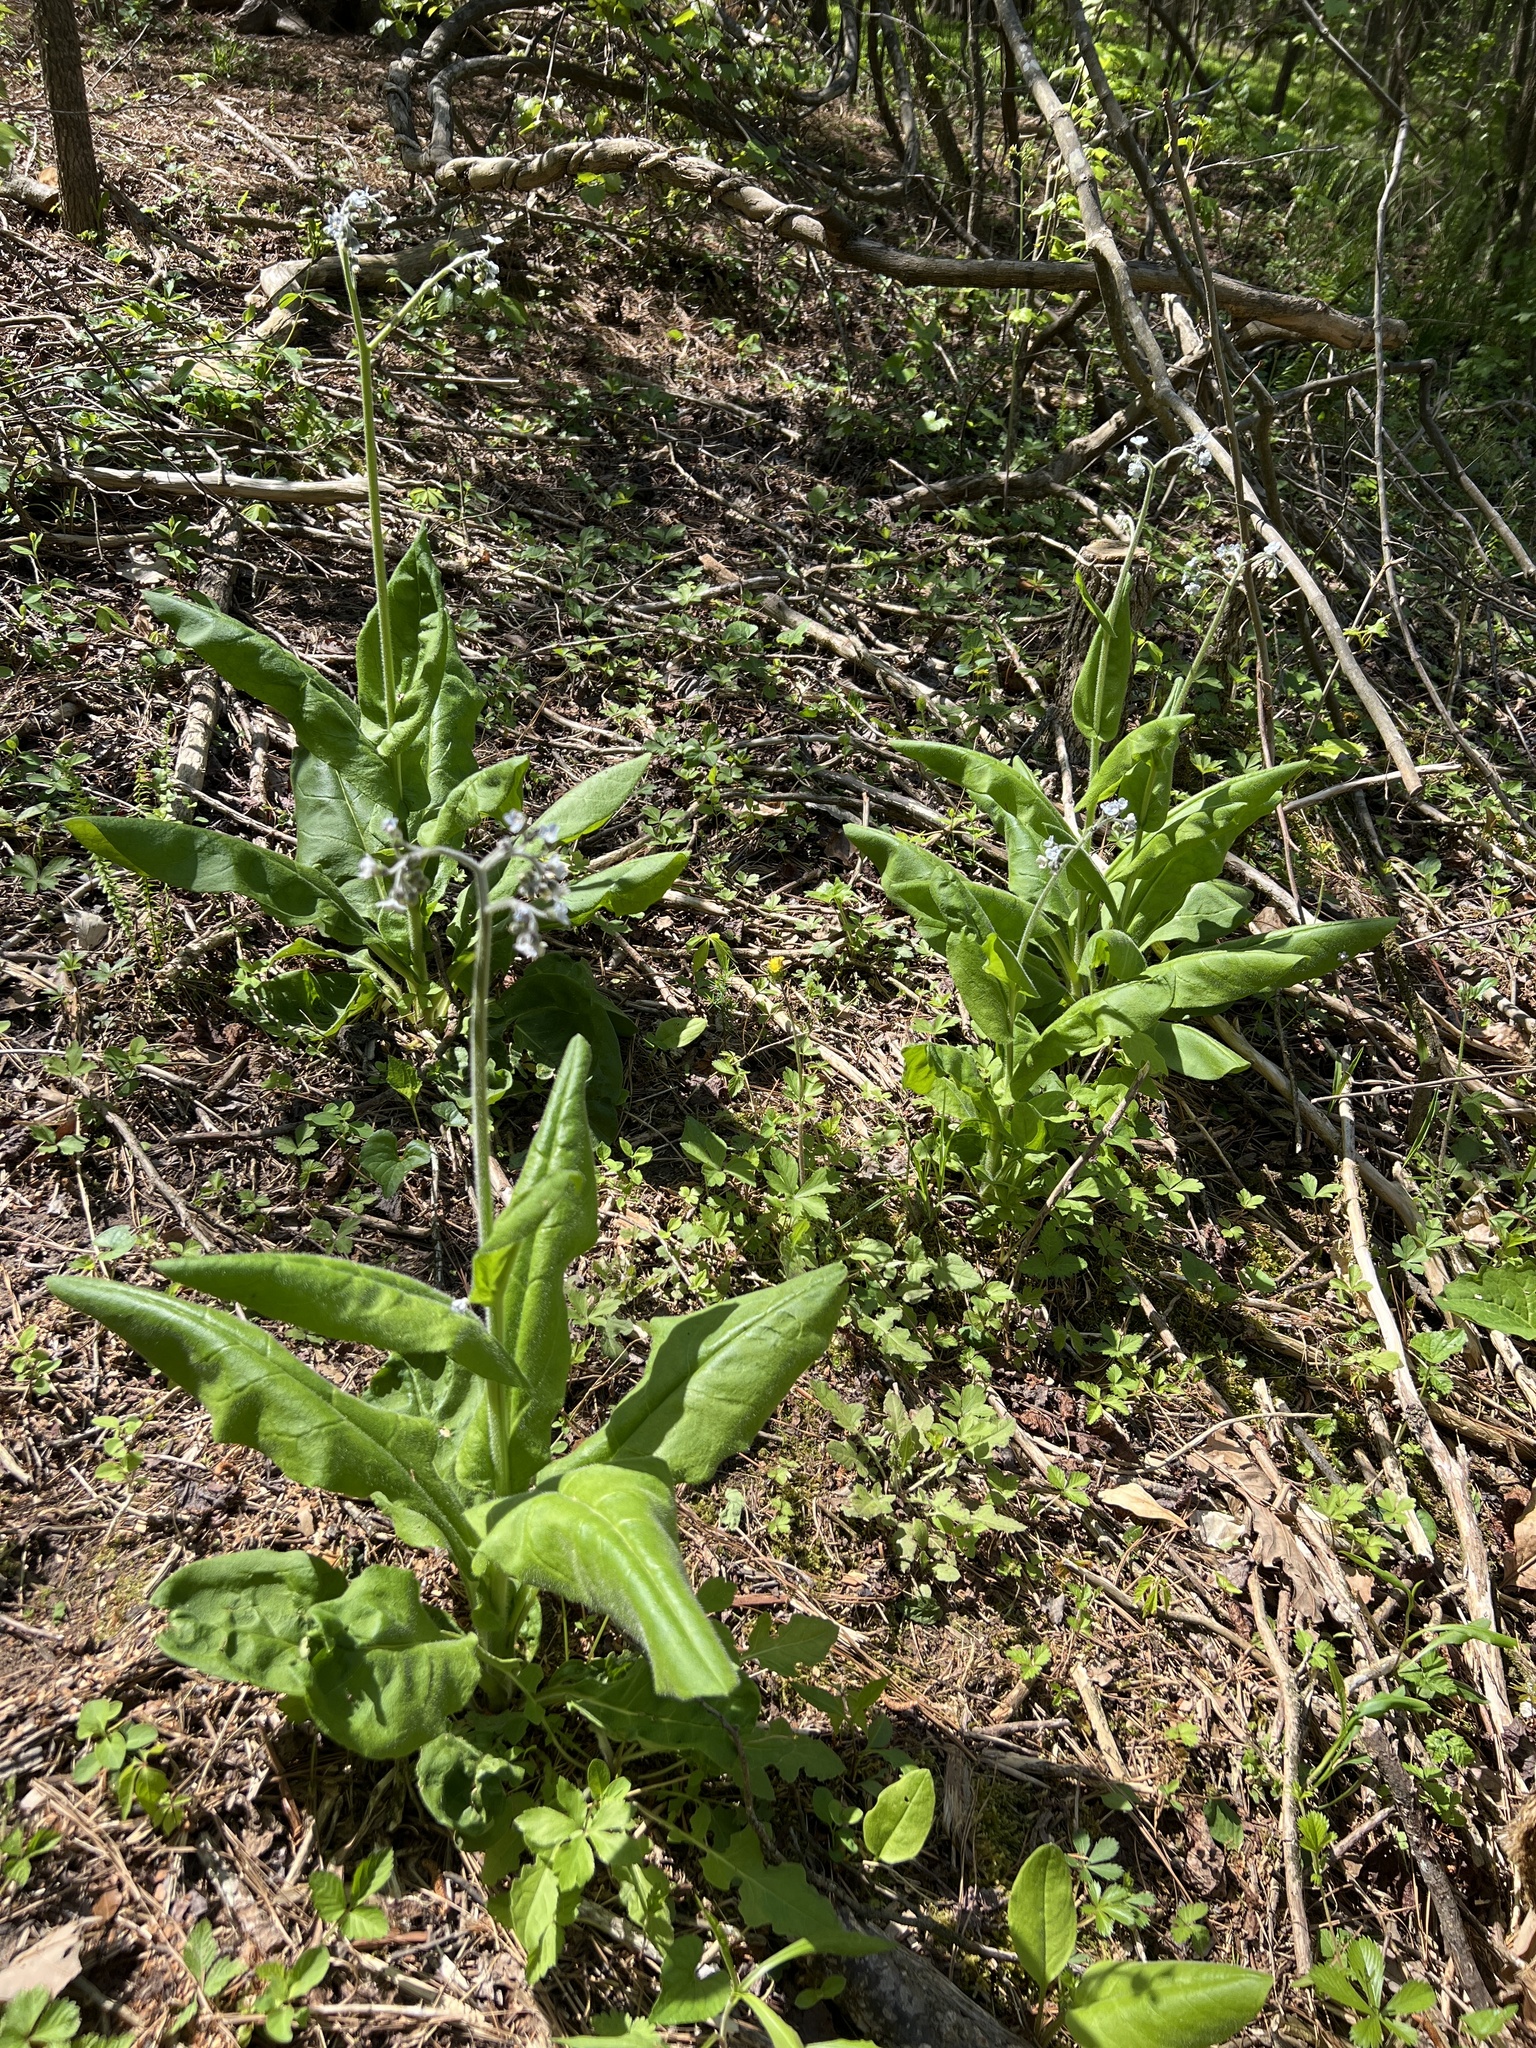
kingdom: Plantae
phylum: Tracheophyta
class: Magnoliopsida
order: Boraginales
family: Boraginaceae
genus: Andersonglossum
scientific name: Andersonglossum virginianum
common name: Wild comfrey
